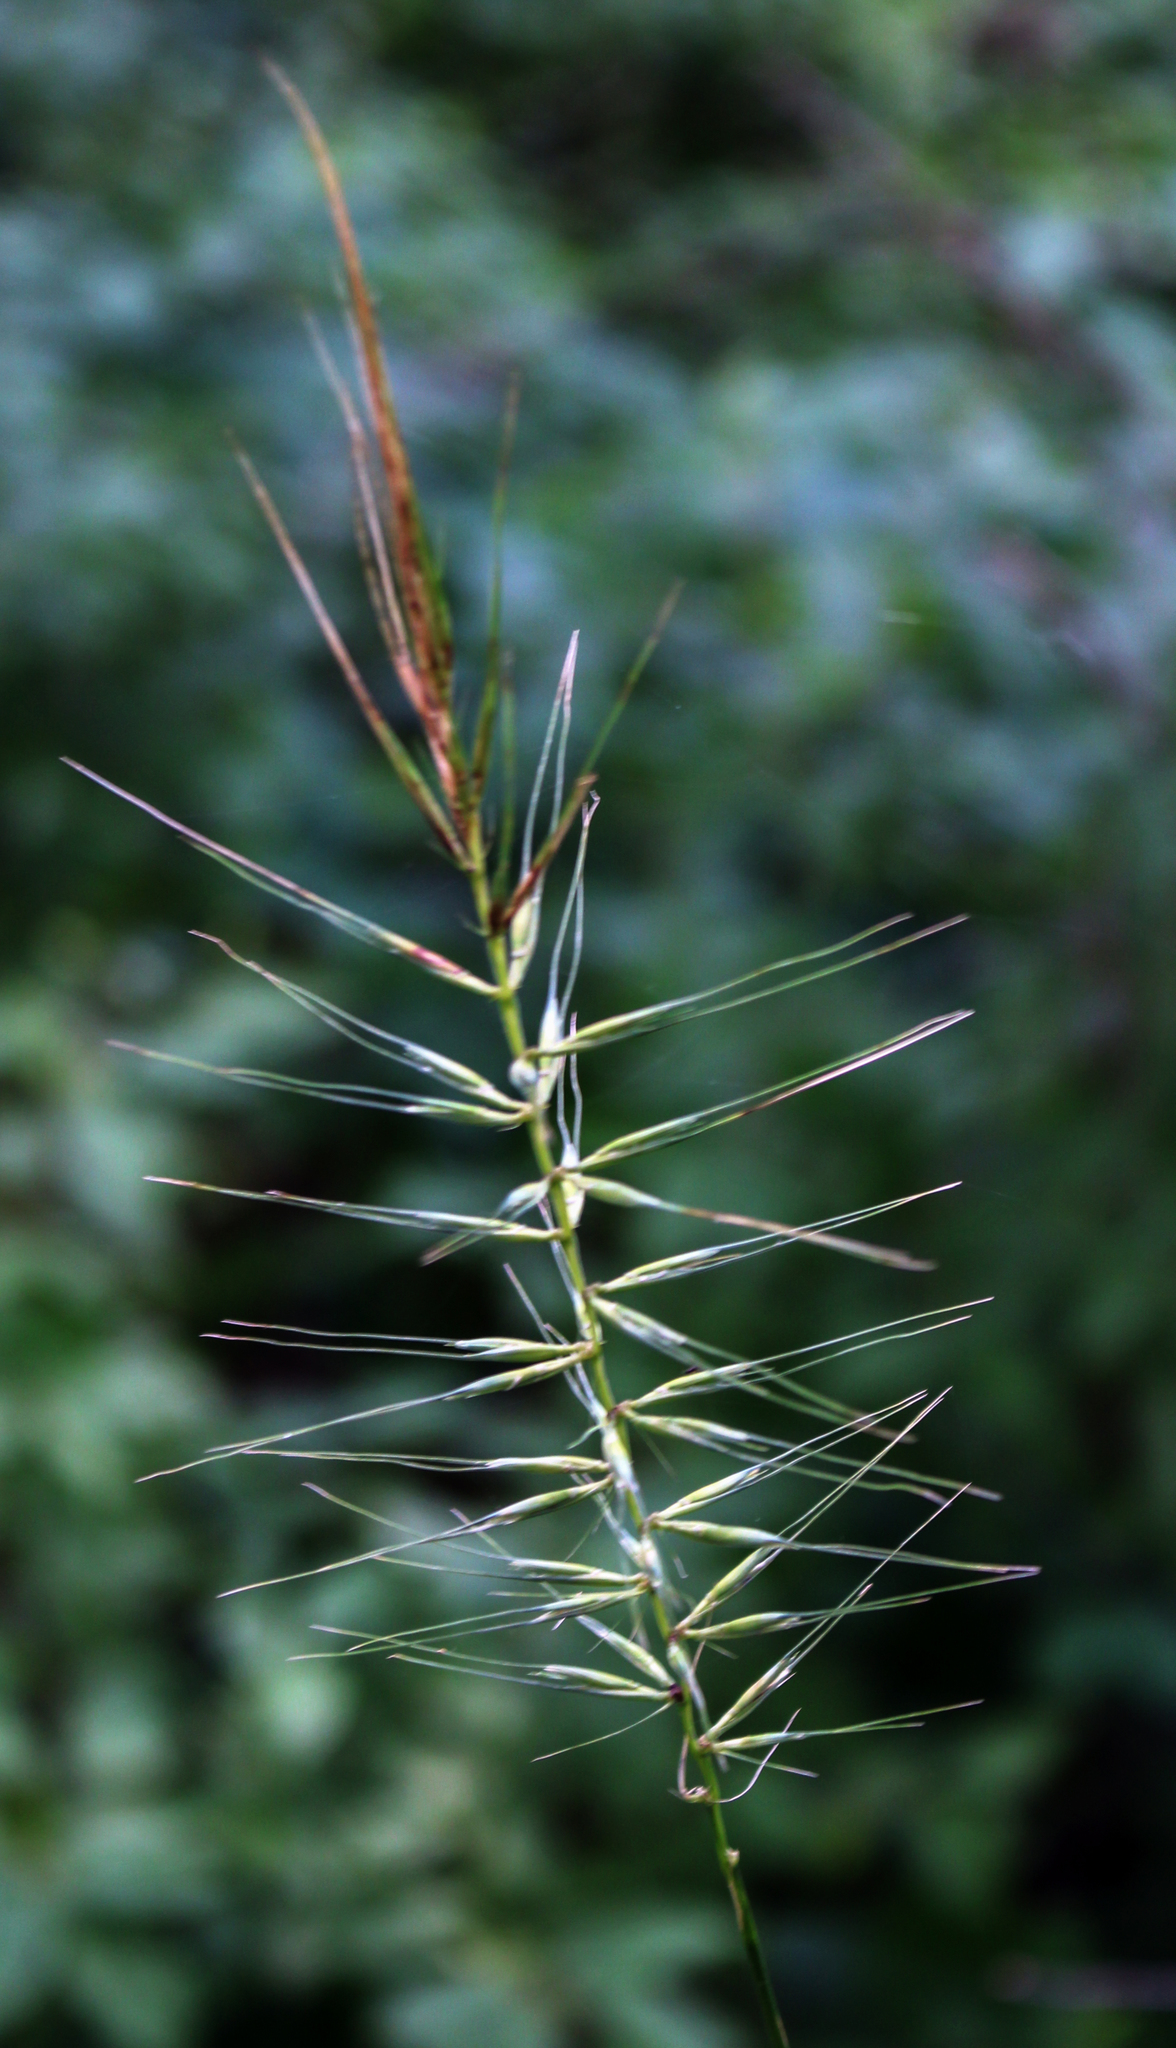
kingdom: Plantae
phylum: Tracheophyta
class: Liliopsida
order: Poales
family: Poaceae
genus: Elymus
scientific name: Elymus hystrix
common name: Bottlebrush grass
